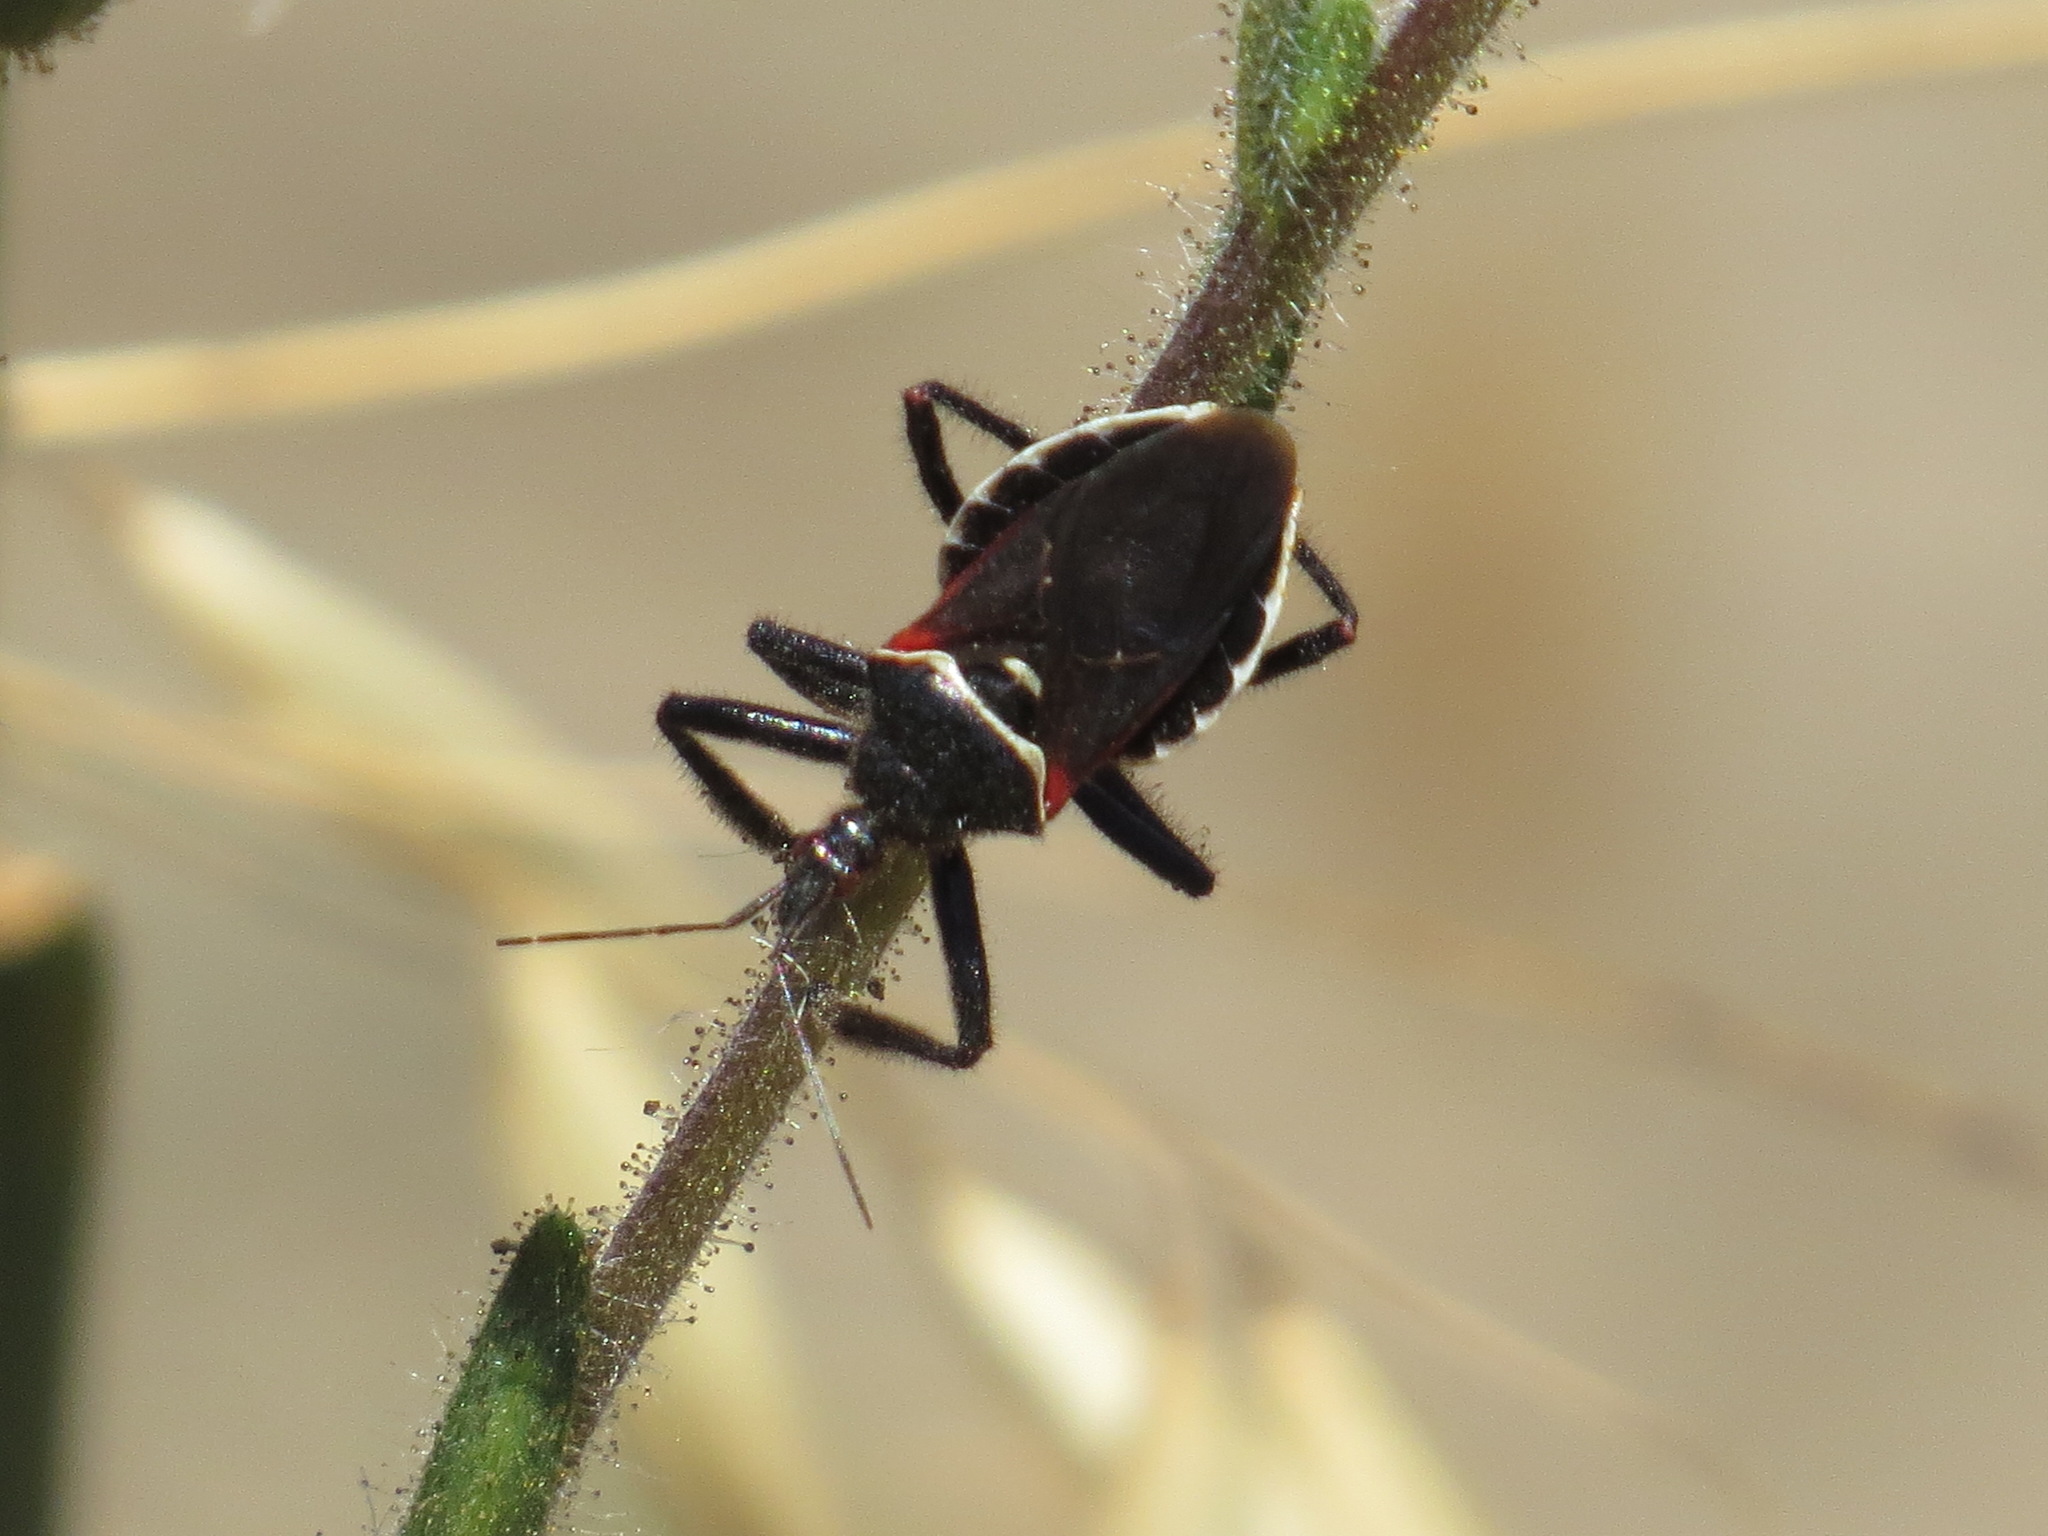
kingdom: Animalia
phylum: Arthropoda
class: Insecta
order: Hemiptera
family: Reduviidae
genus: Apiomerus
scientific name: Apiomerus californicus
